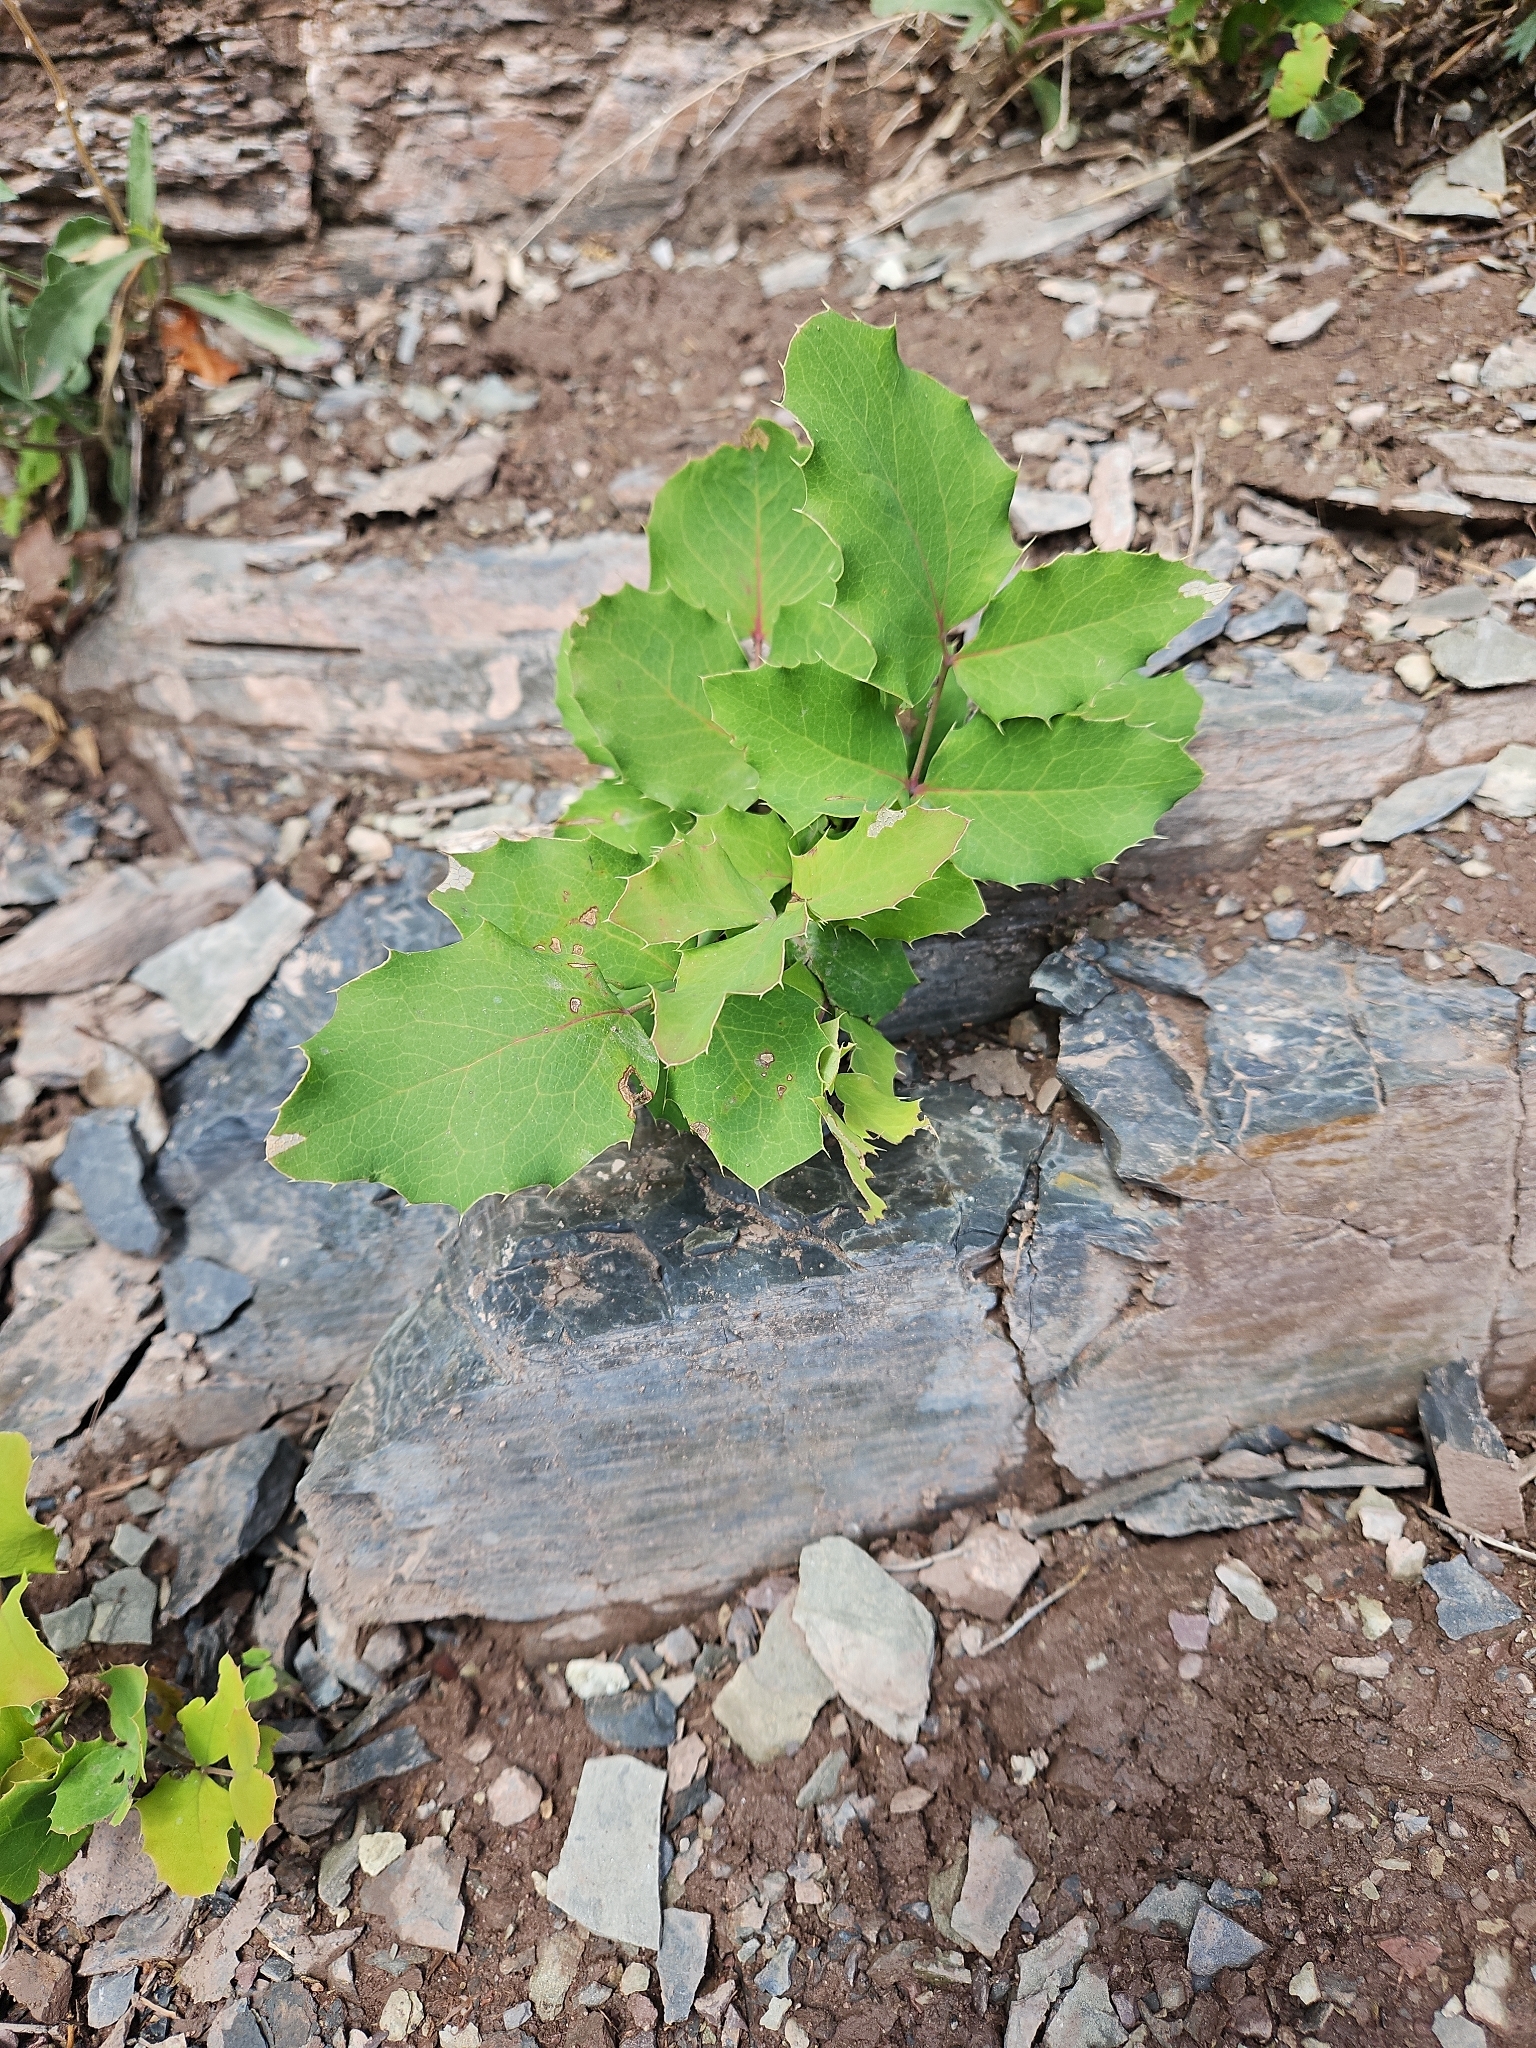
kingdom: Plantae
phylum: Tracheophyta
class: Magnoliopsida
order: Ranunculales
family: Berberidaceae
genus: Mahonia
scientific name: Mahonia repens
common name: Creeping oregon-grape
